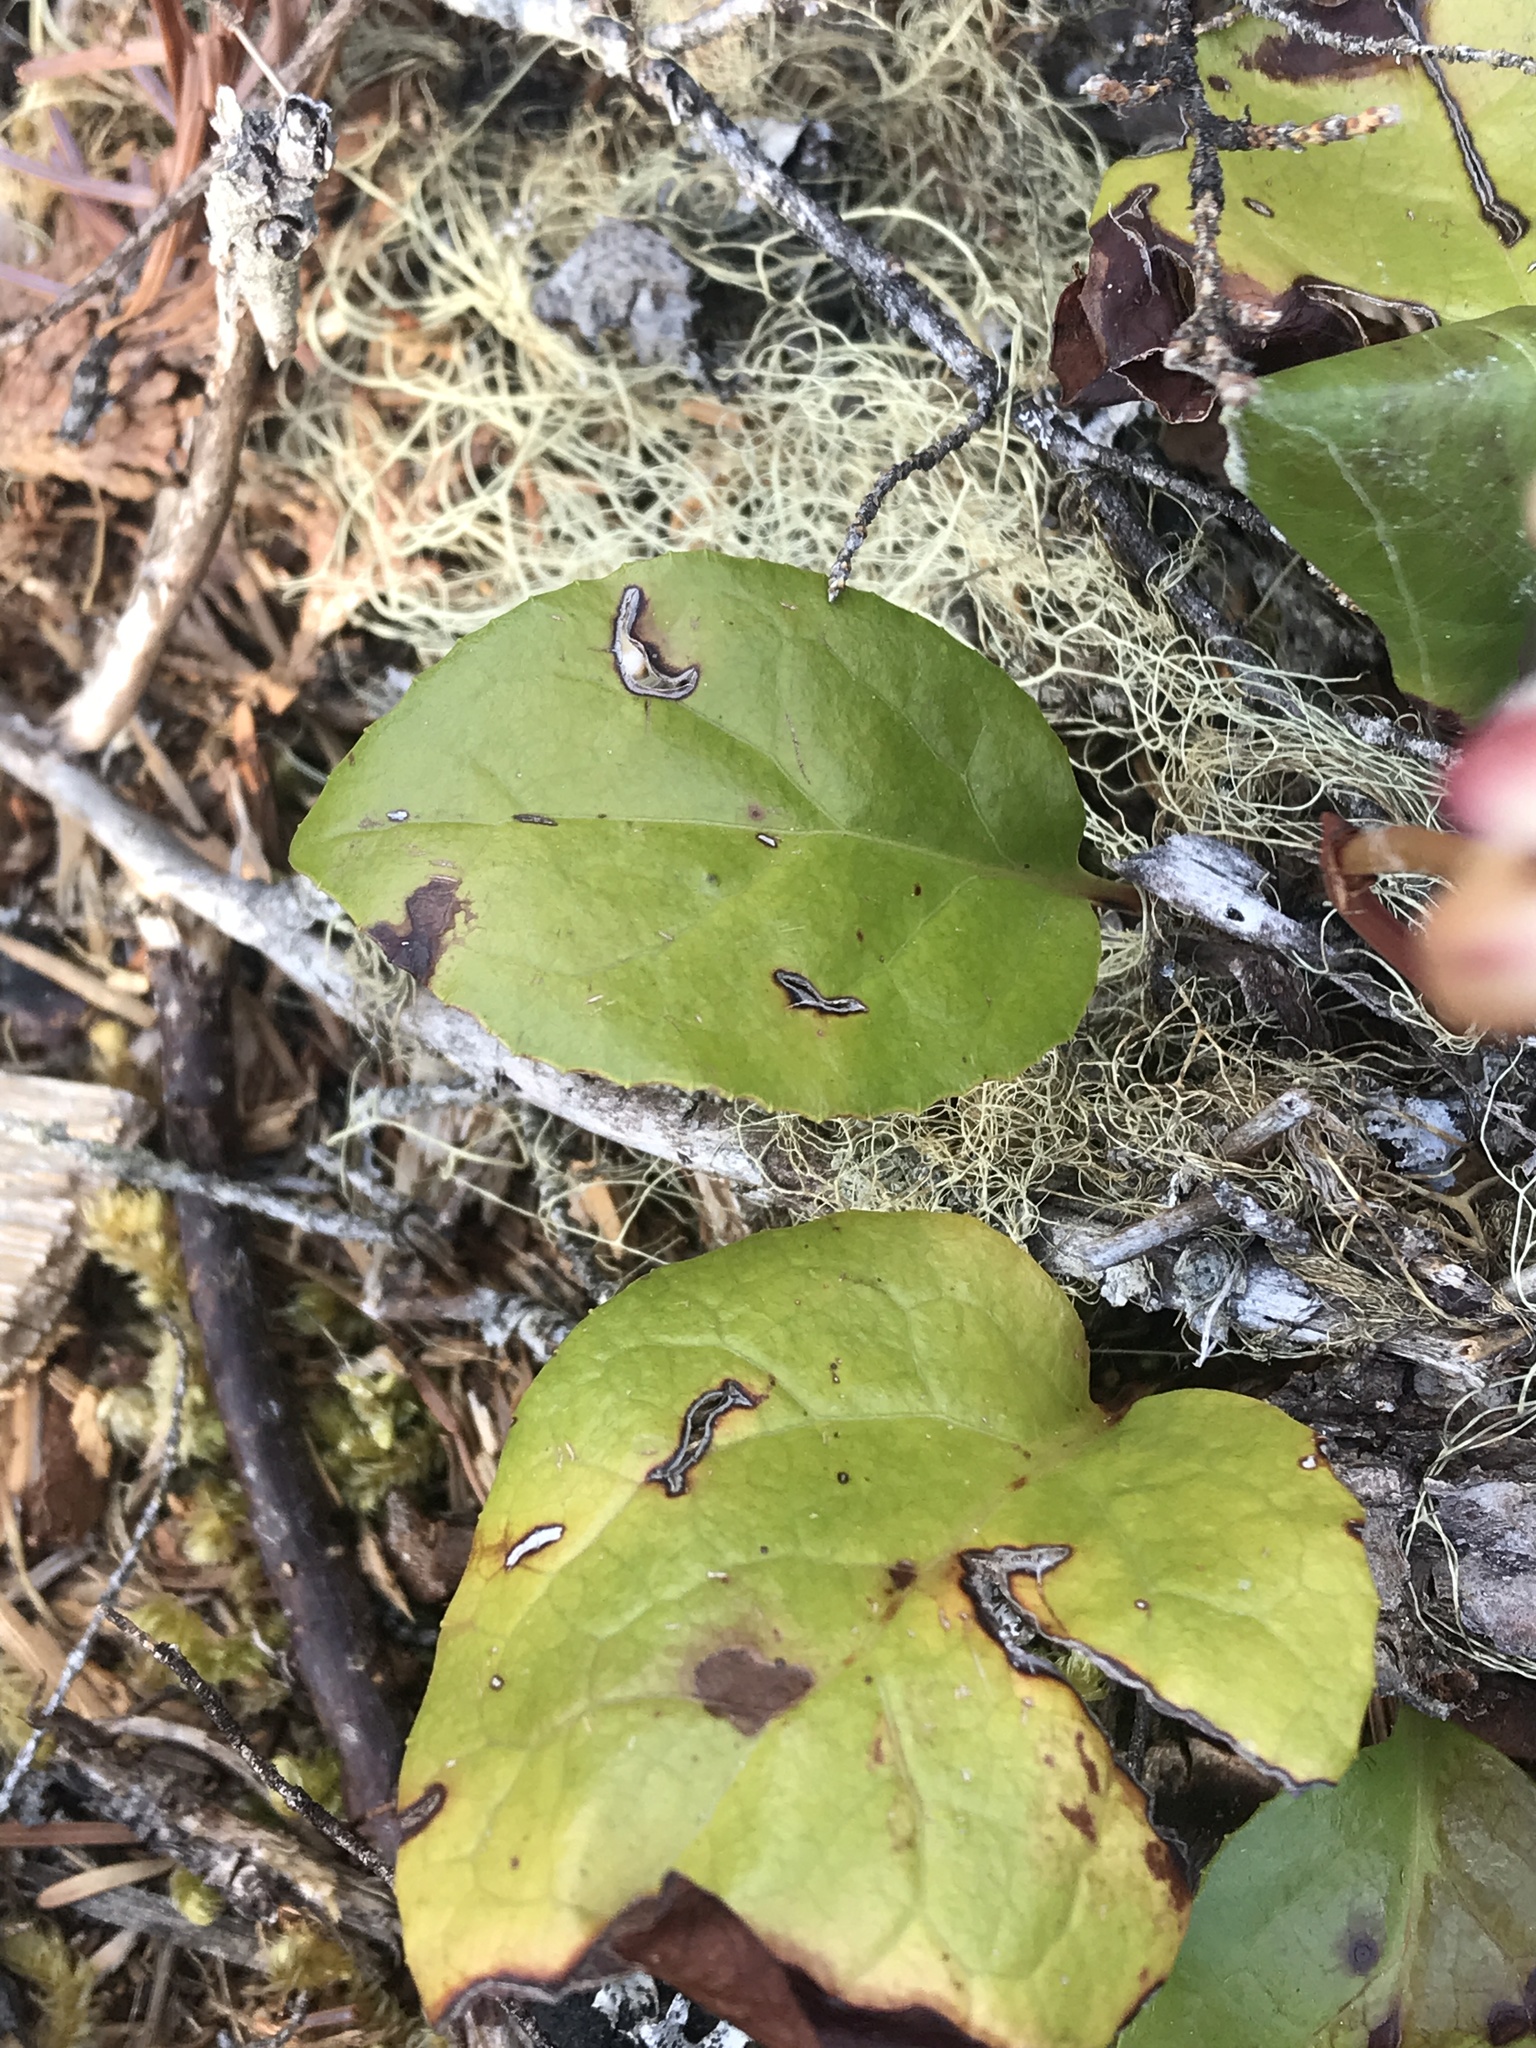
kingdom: Plantae
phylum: Tracheophyta
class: Magnoliopsida
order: Ericales
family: Ericaceae
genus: Pyrola
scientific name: Pyrola asarifolia
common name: Bog wintergreen
